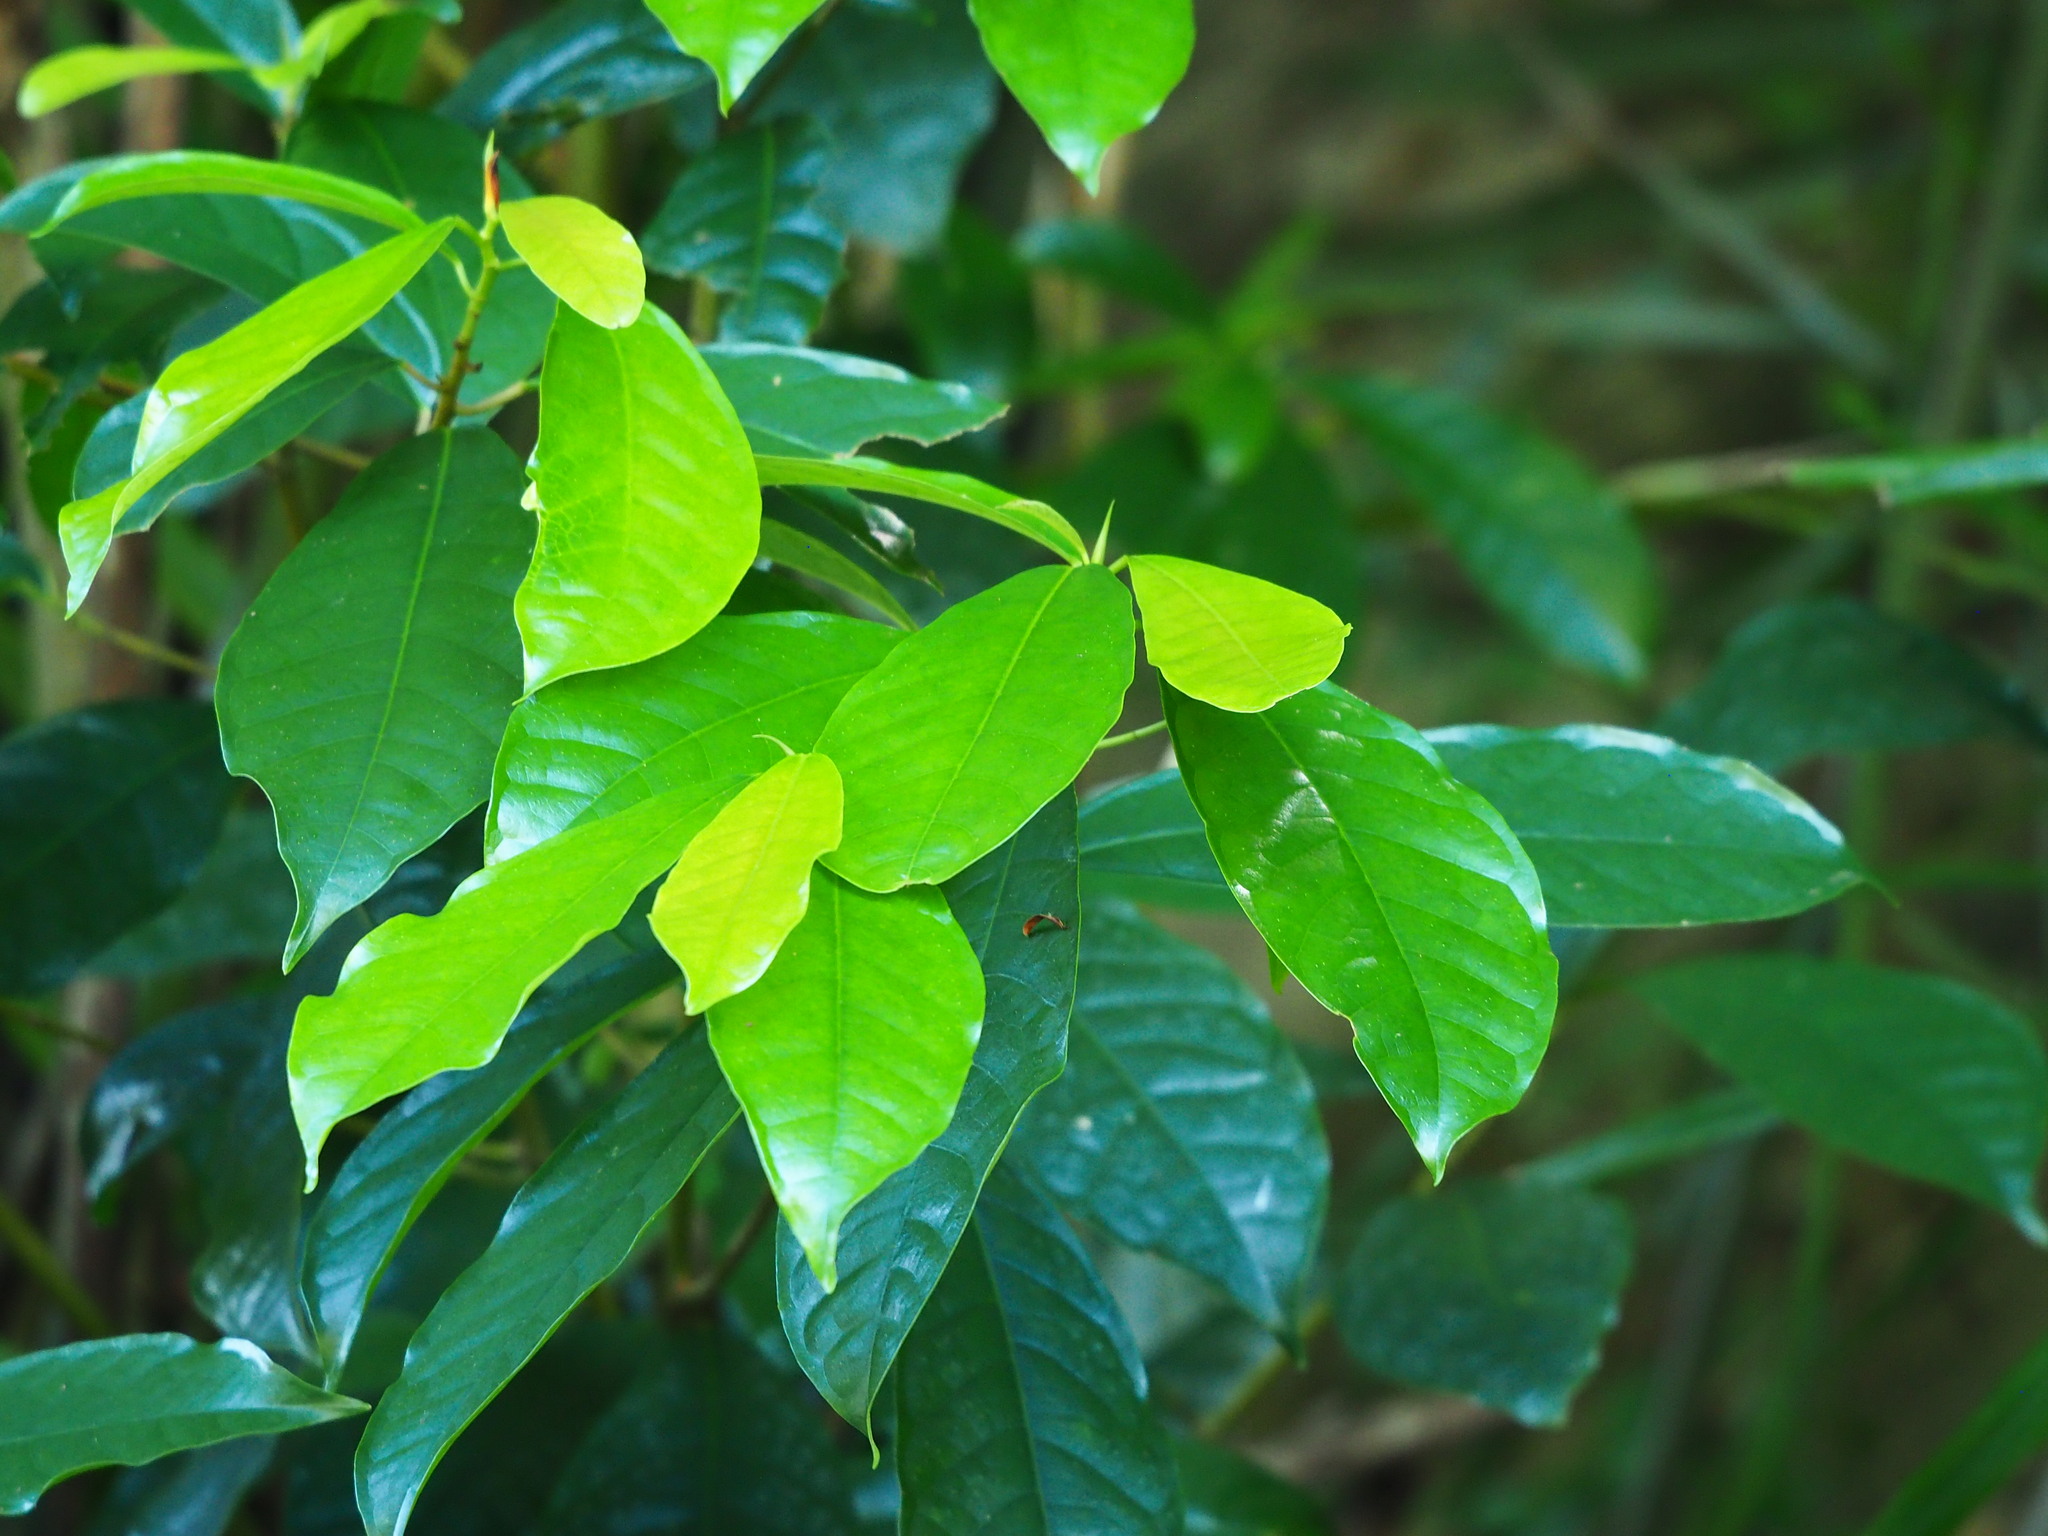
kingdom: Plantae
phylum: Tracheophyta
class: Magnoliopsida
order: Rosales
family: Moraceae
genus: Ficus
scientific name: Ficus nervosa
